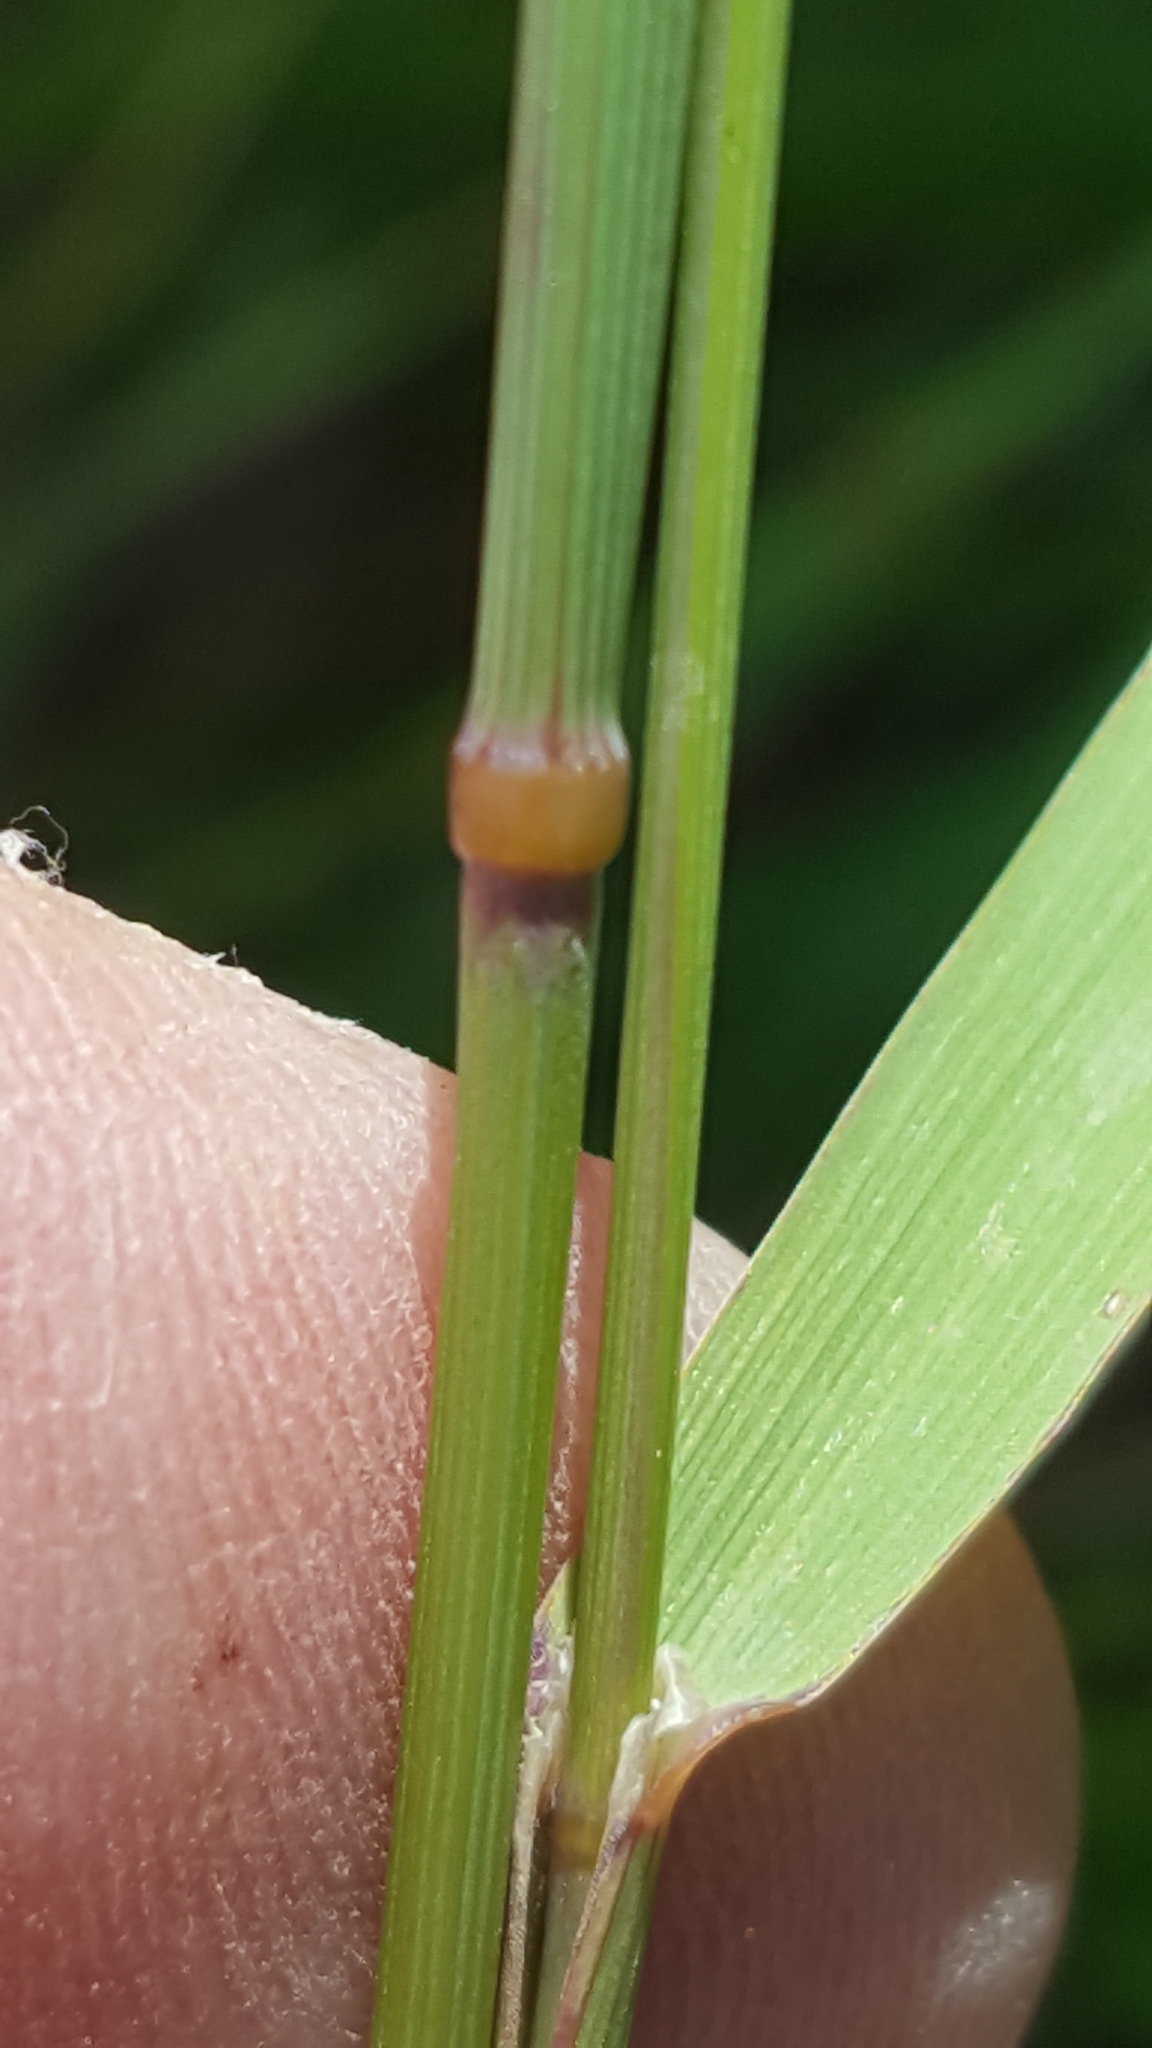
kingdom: Plantae
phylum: Tracheophyta
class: Liliopsida
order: Poales
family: Poaceae
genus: Calamagrostis
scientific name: Calamagrostis canadensis
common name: Canada bluejoint
